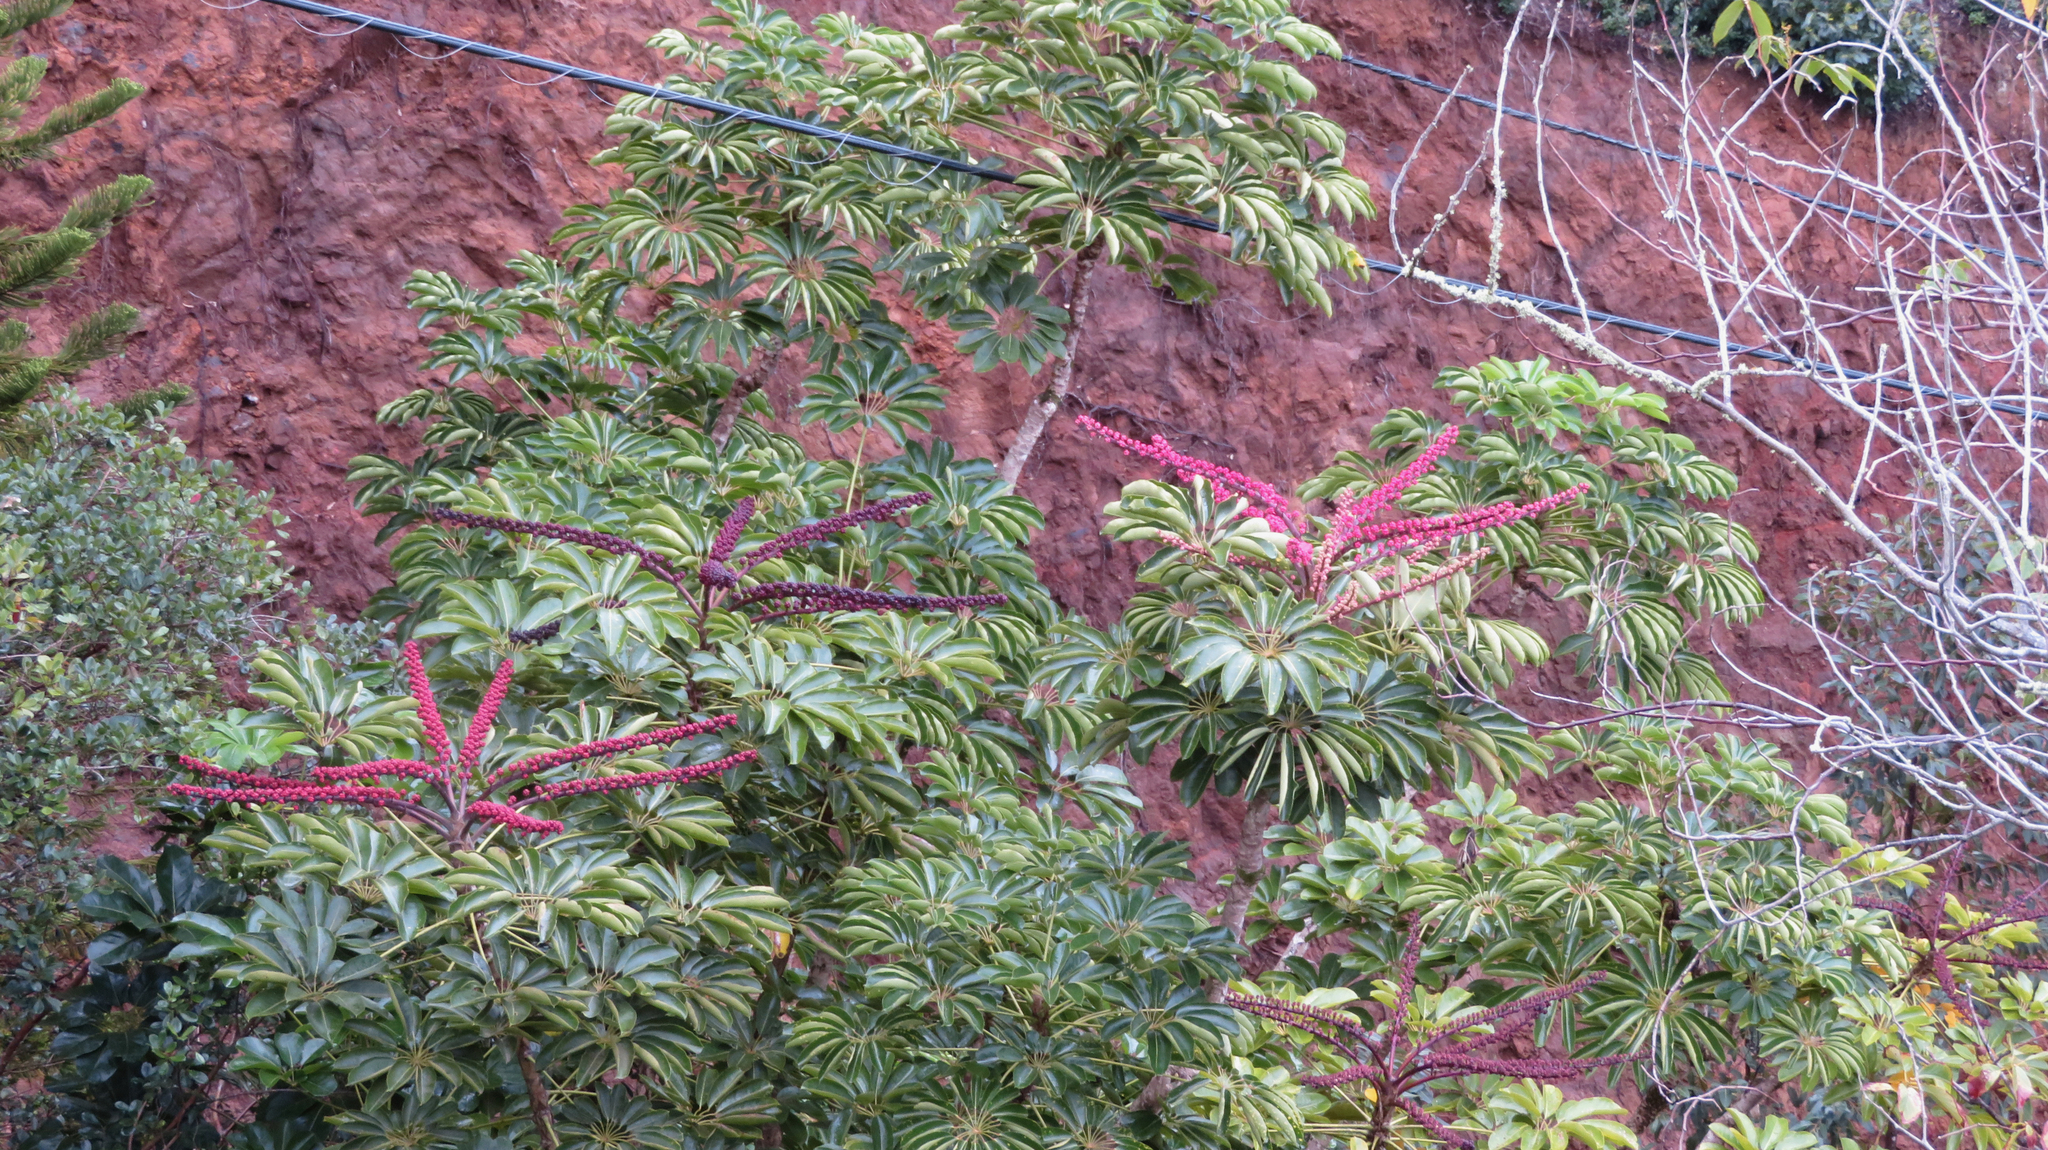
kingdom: Plantae
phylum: Tracheophyta
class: Magnoliopsida
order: Apiales
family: Araliaceae
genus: Heptapleurum
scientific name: Heptapleurum actinophyllum
